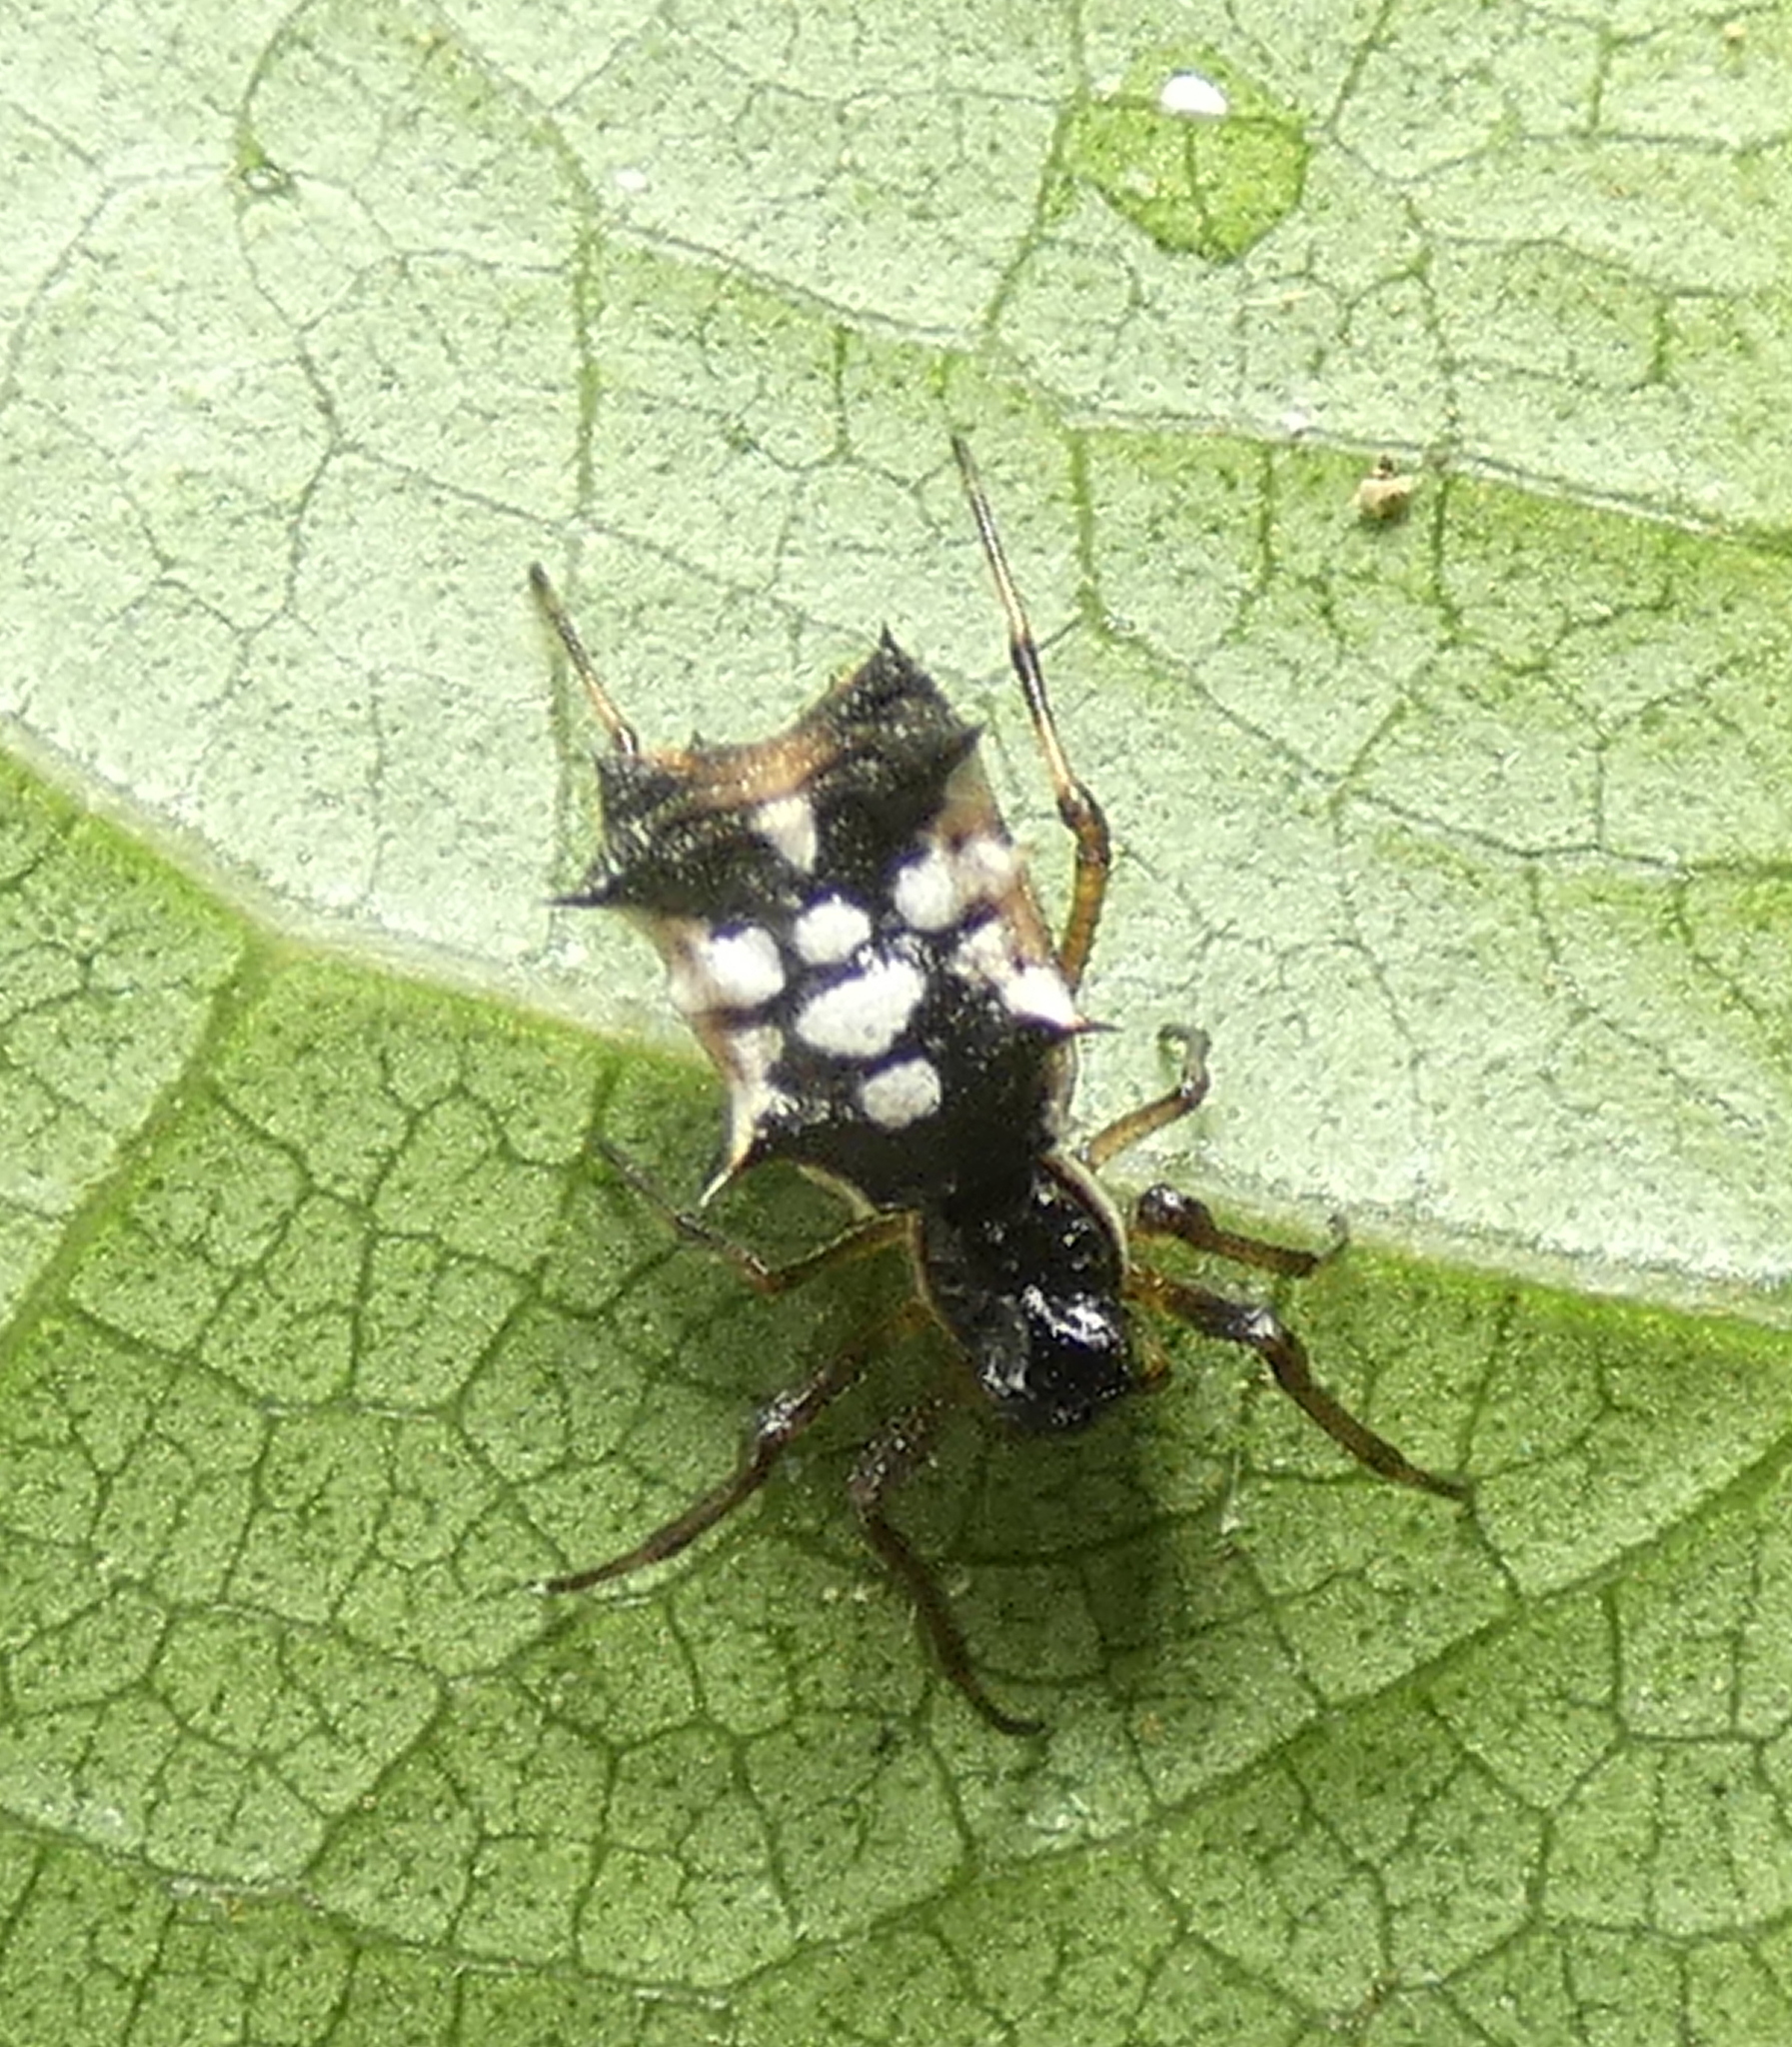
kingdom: Animalia
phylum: Arthropoda
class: Arachnida
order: Araneae
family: Araneidae
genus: Micrathena
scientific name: Micrathena picta
